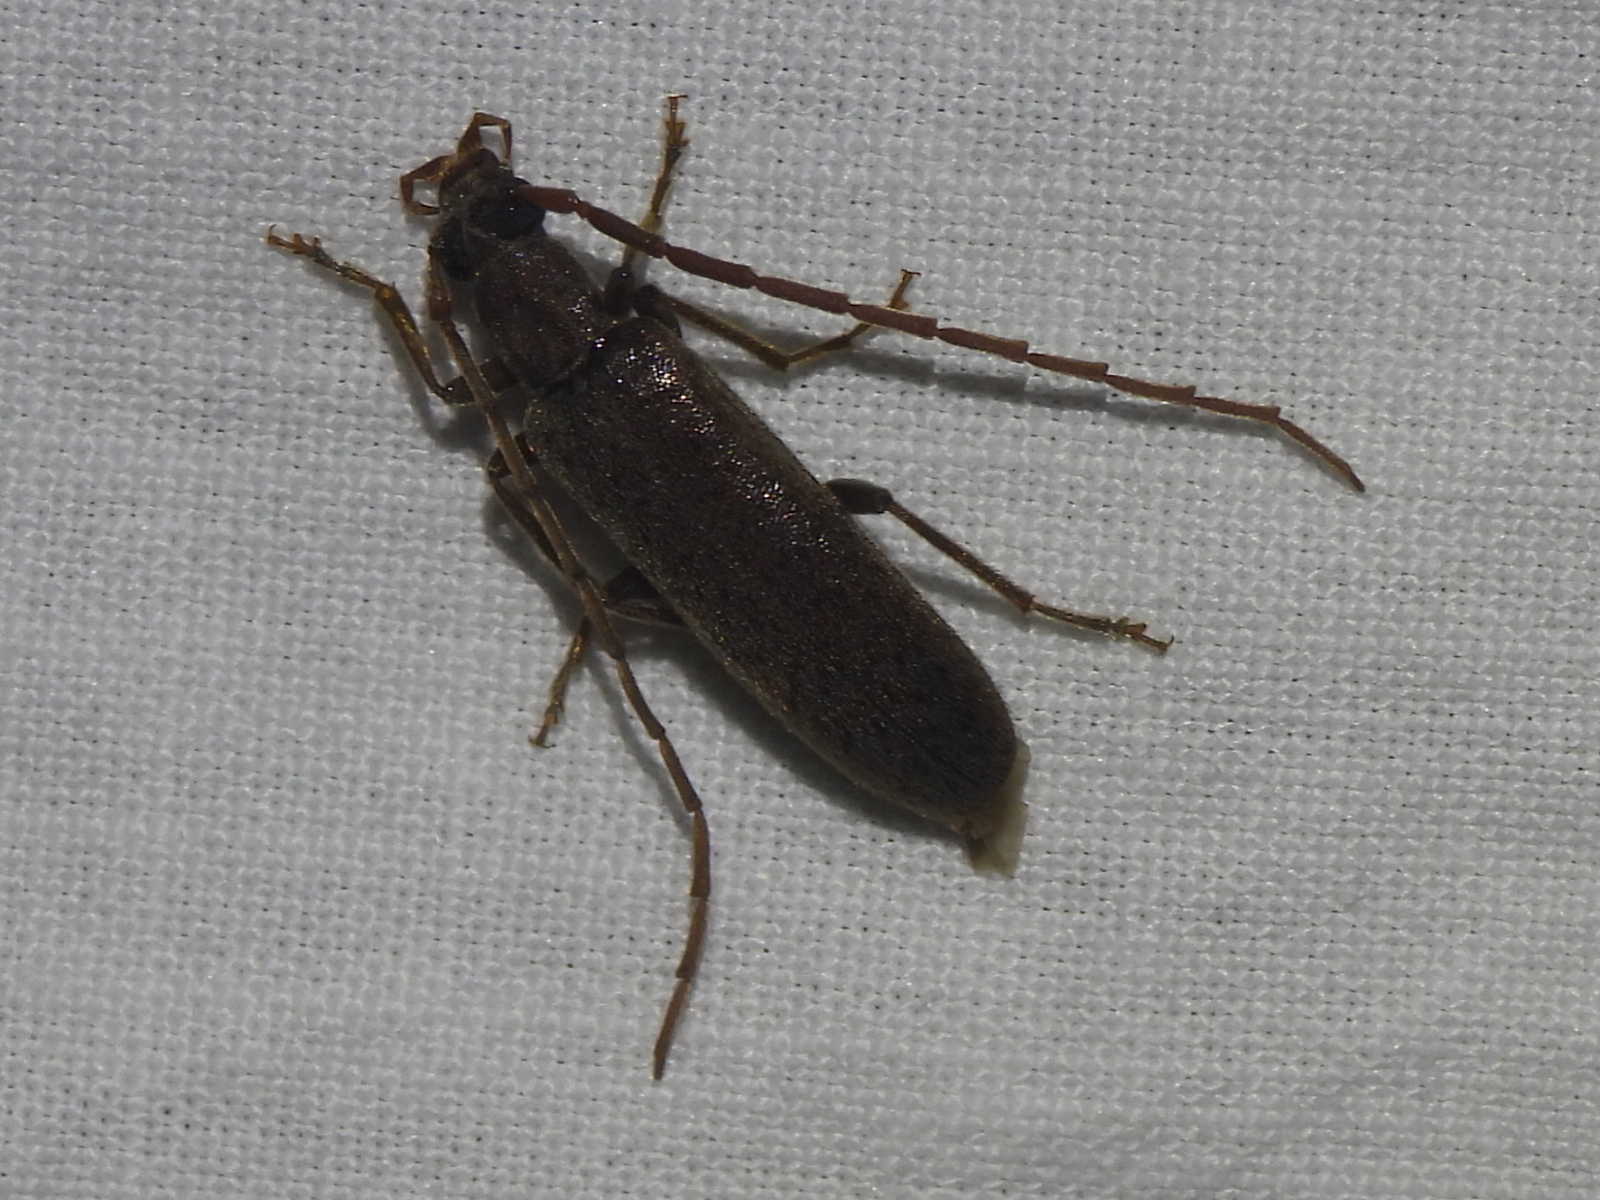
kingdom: Animalia
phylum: Arthropoda
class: Insecta
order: Coleoptera
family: Oedemeridae
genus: Sparedrus
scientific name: Sparedrus aspersus
